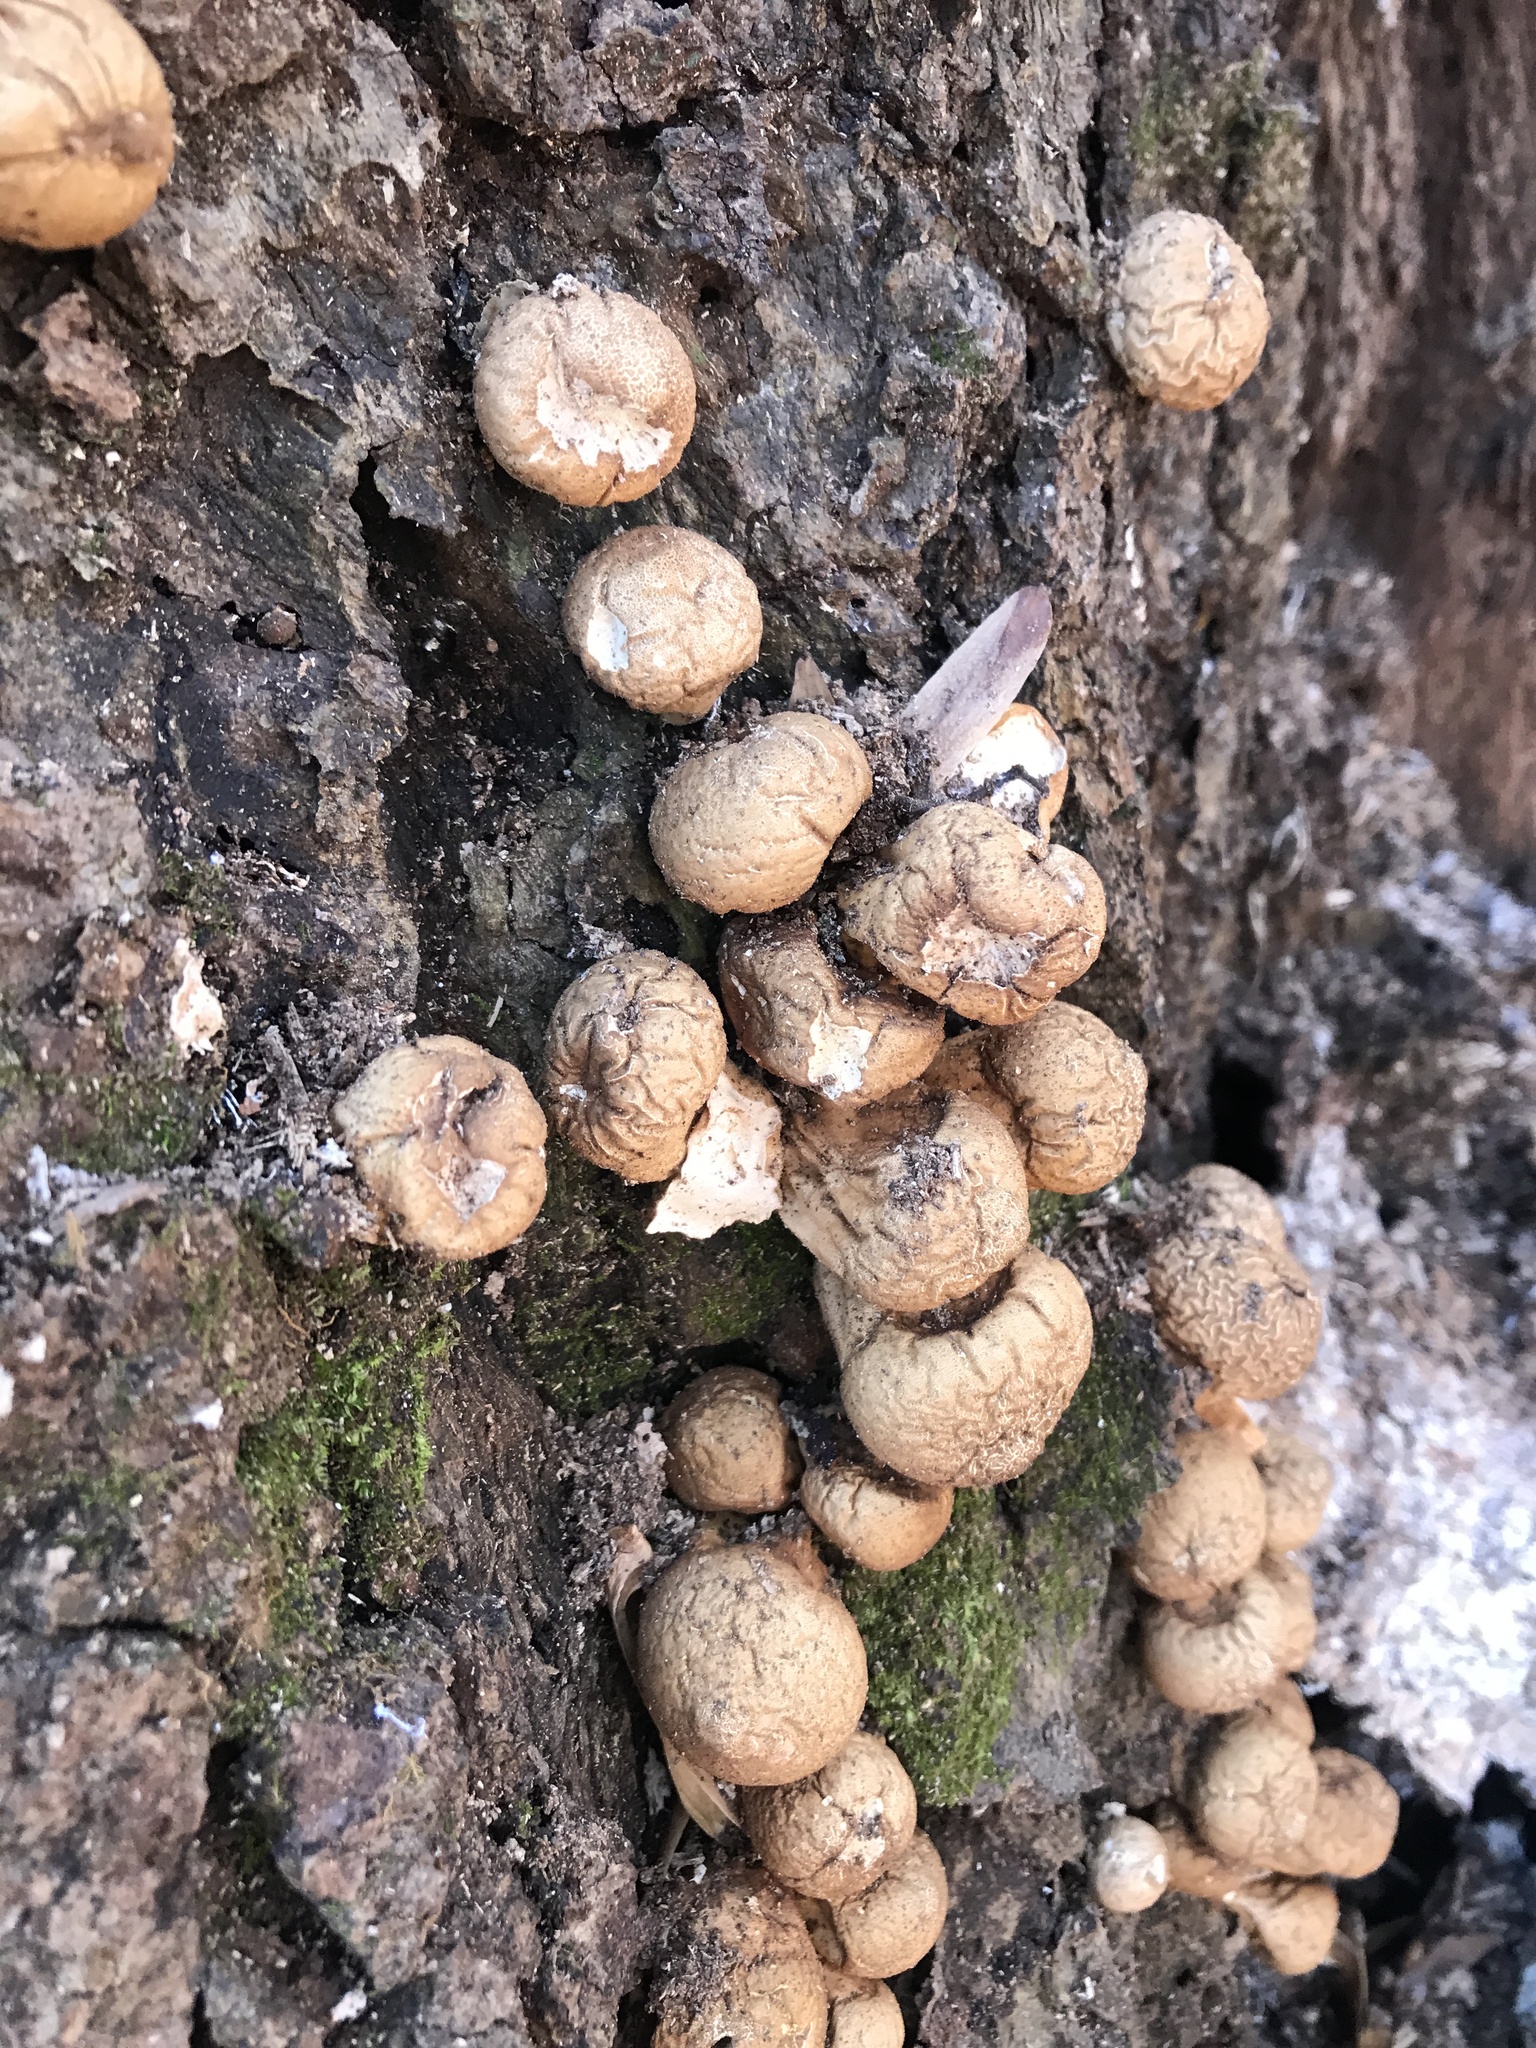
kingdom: Fungi
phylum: Basidiomycota
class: Agaricomycetes
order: Agaricales
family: Lycoperdaceae
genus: Apioperdon
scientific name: Apioperdon pyriforme
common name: Pear-shaped puffball
